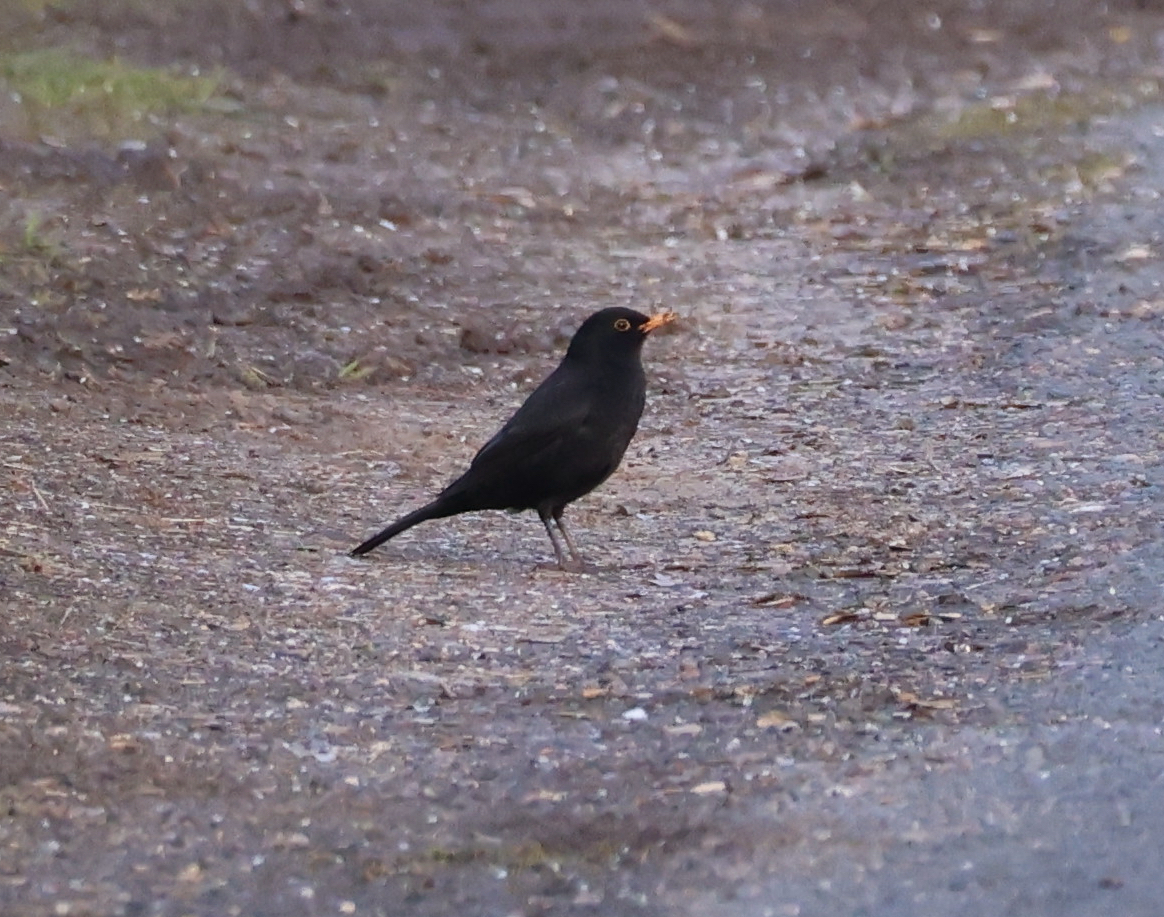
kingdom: Animalia
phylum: Chordata
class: Aves
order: Passeriformes
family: Turdidae
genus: Turdus
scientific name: Turdus merula
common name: Common blackbird
